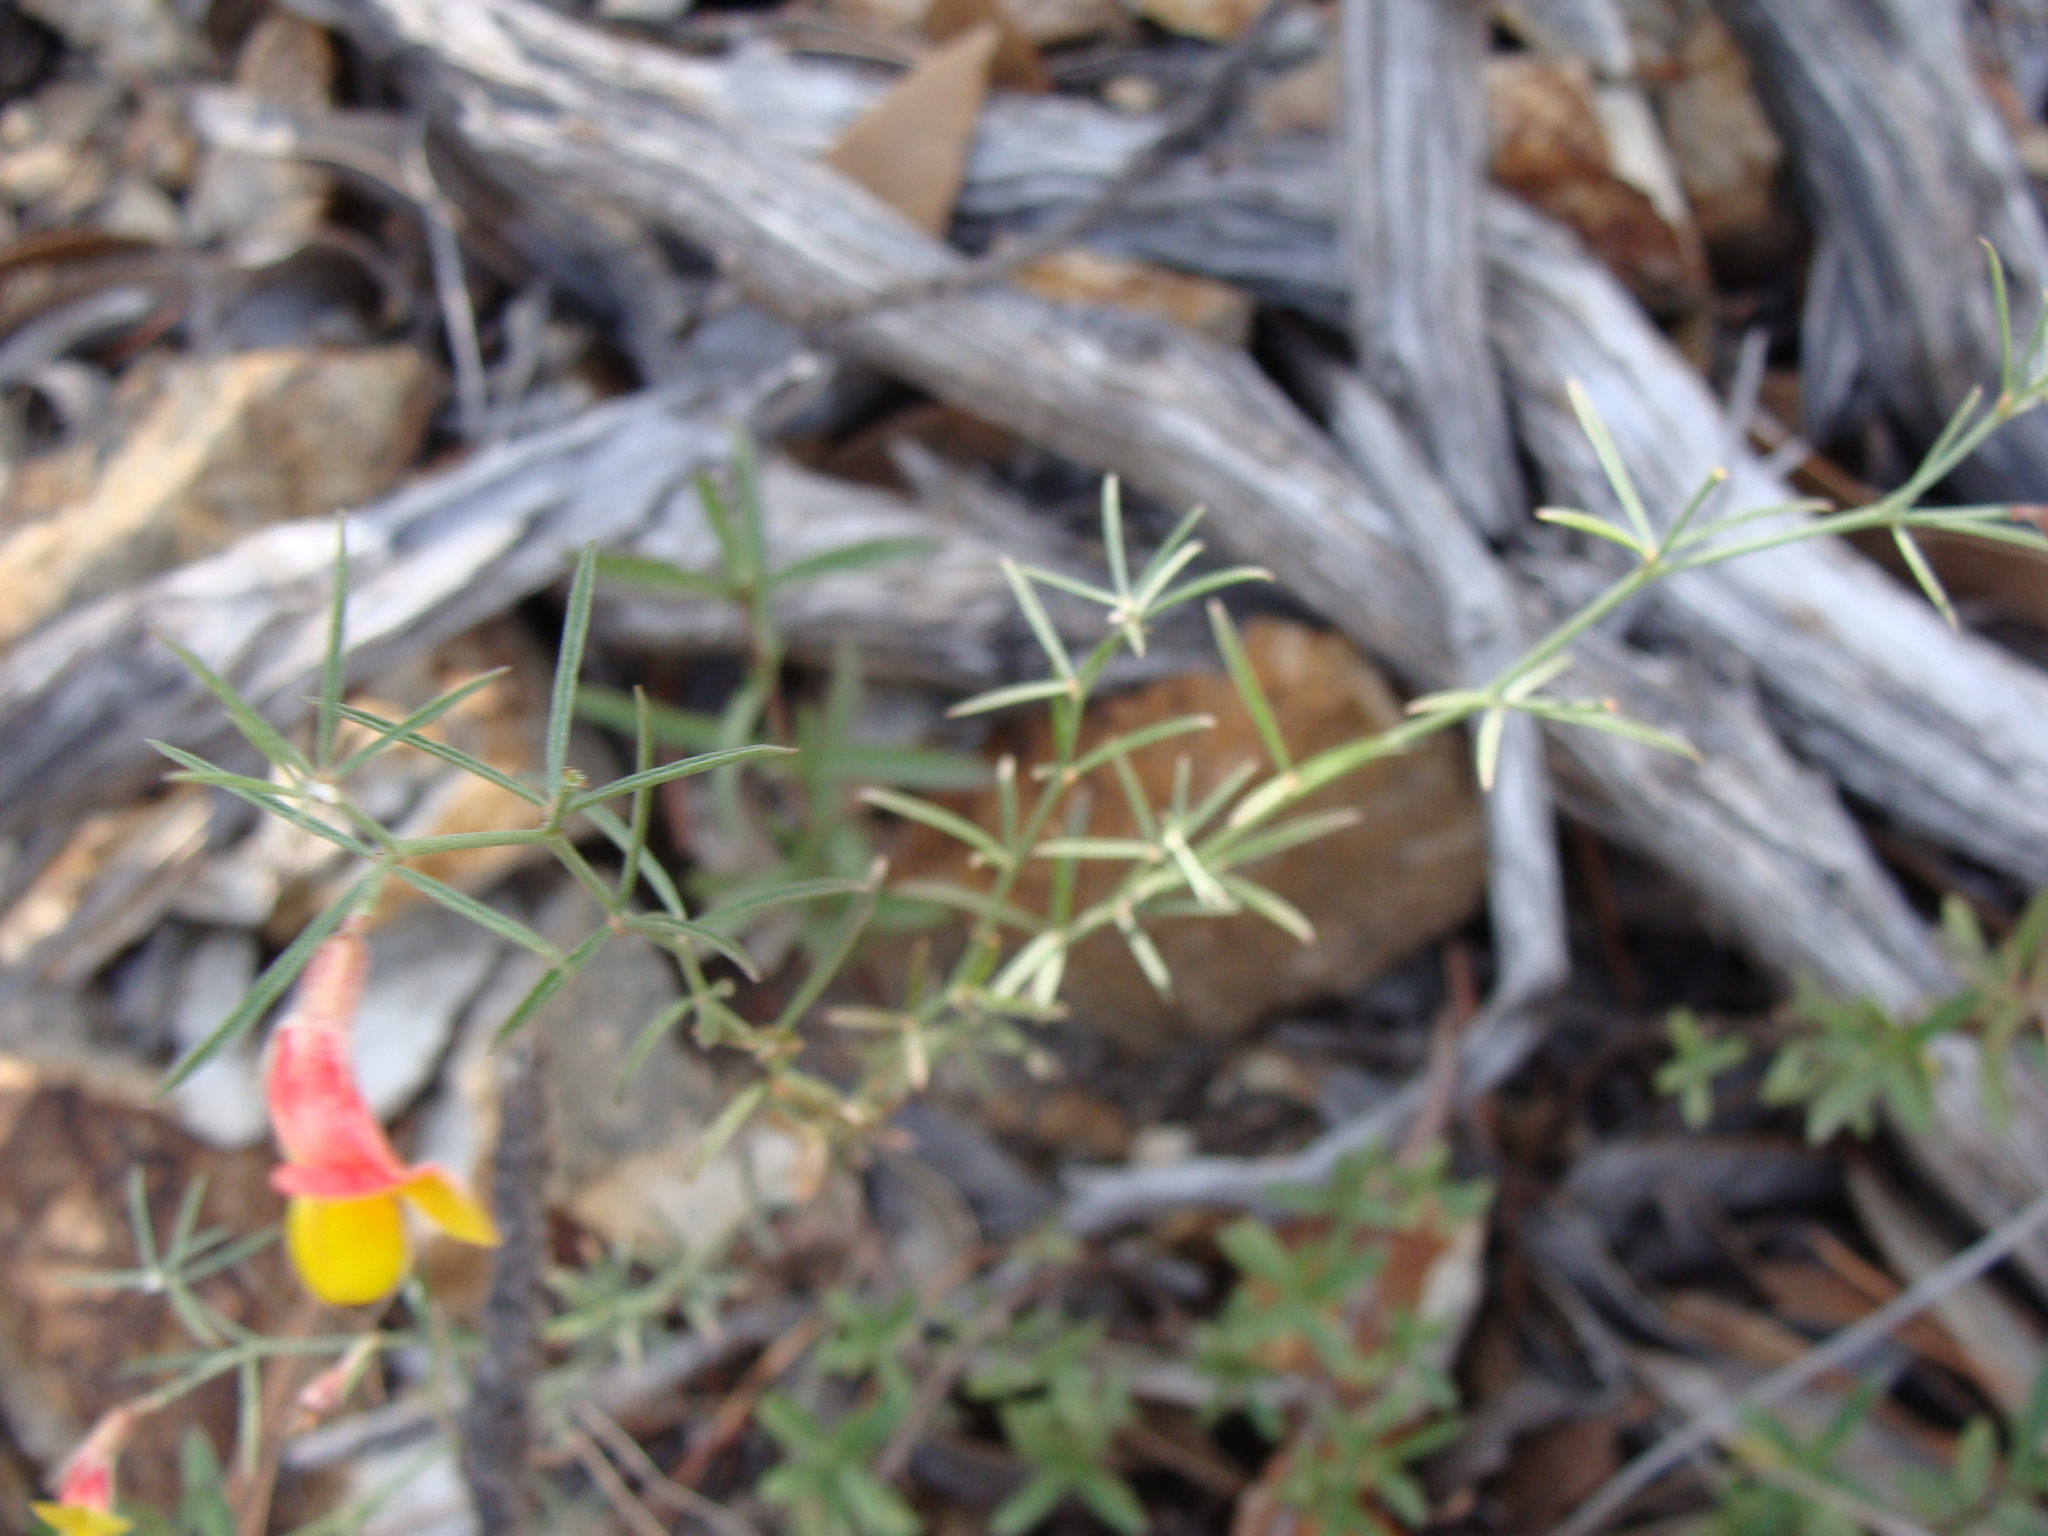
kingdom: Plantae
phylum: Tracheophyta
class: Magnoliopsida
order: Fabales
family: Fabaceae
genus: Acmispon
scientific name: Acmispon oroboides
